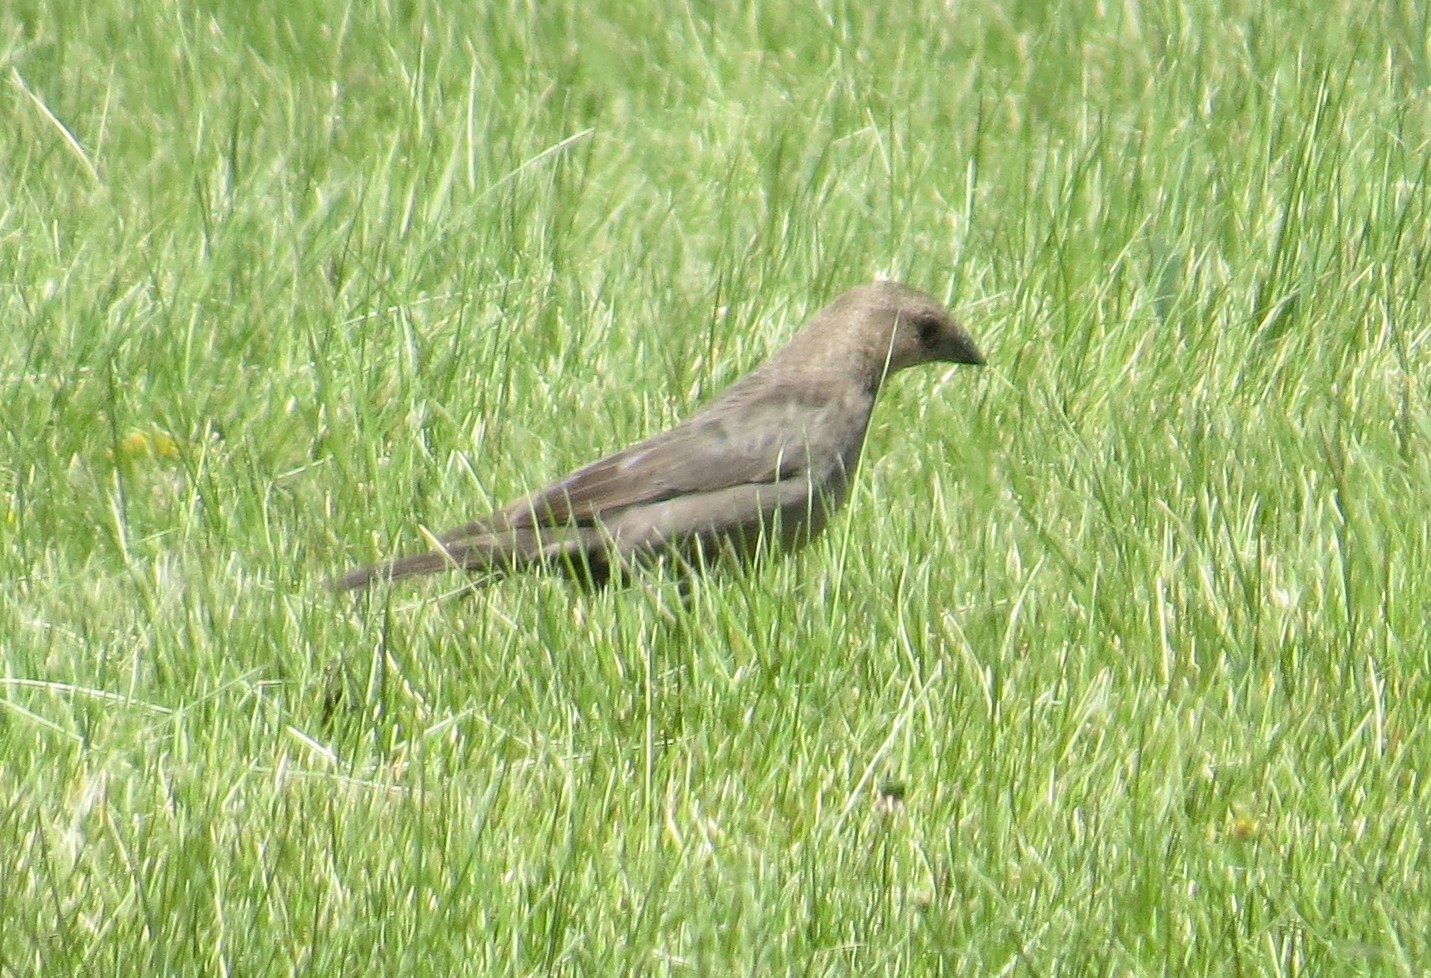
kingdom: Animalia
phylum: Chordata
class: Aves
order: Passeriformes
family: Icteridae
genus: Molothrus
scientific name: Molothrus ater
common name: Brown-headed cowbird
